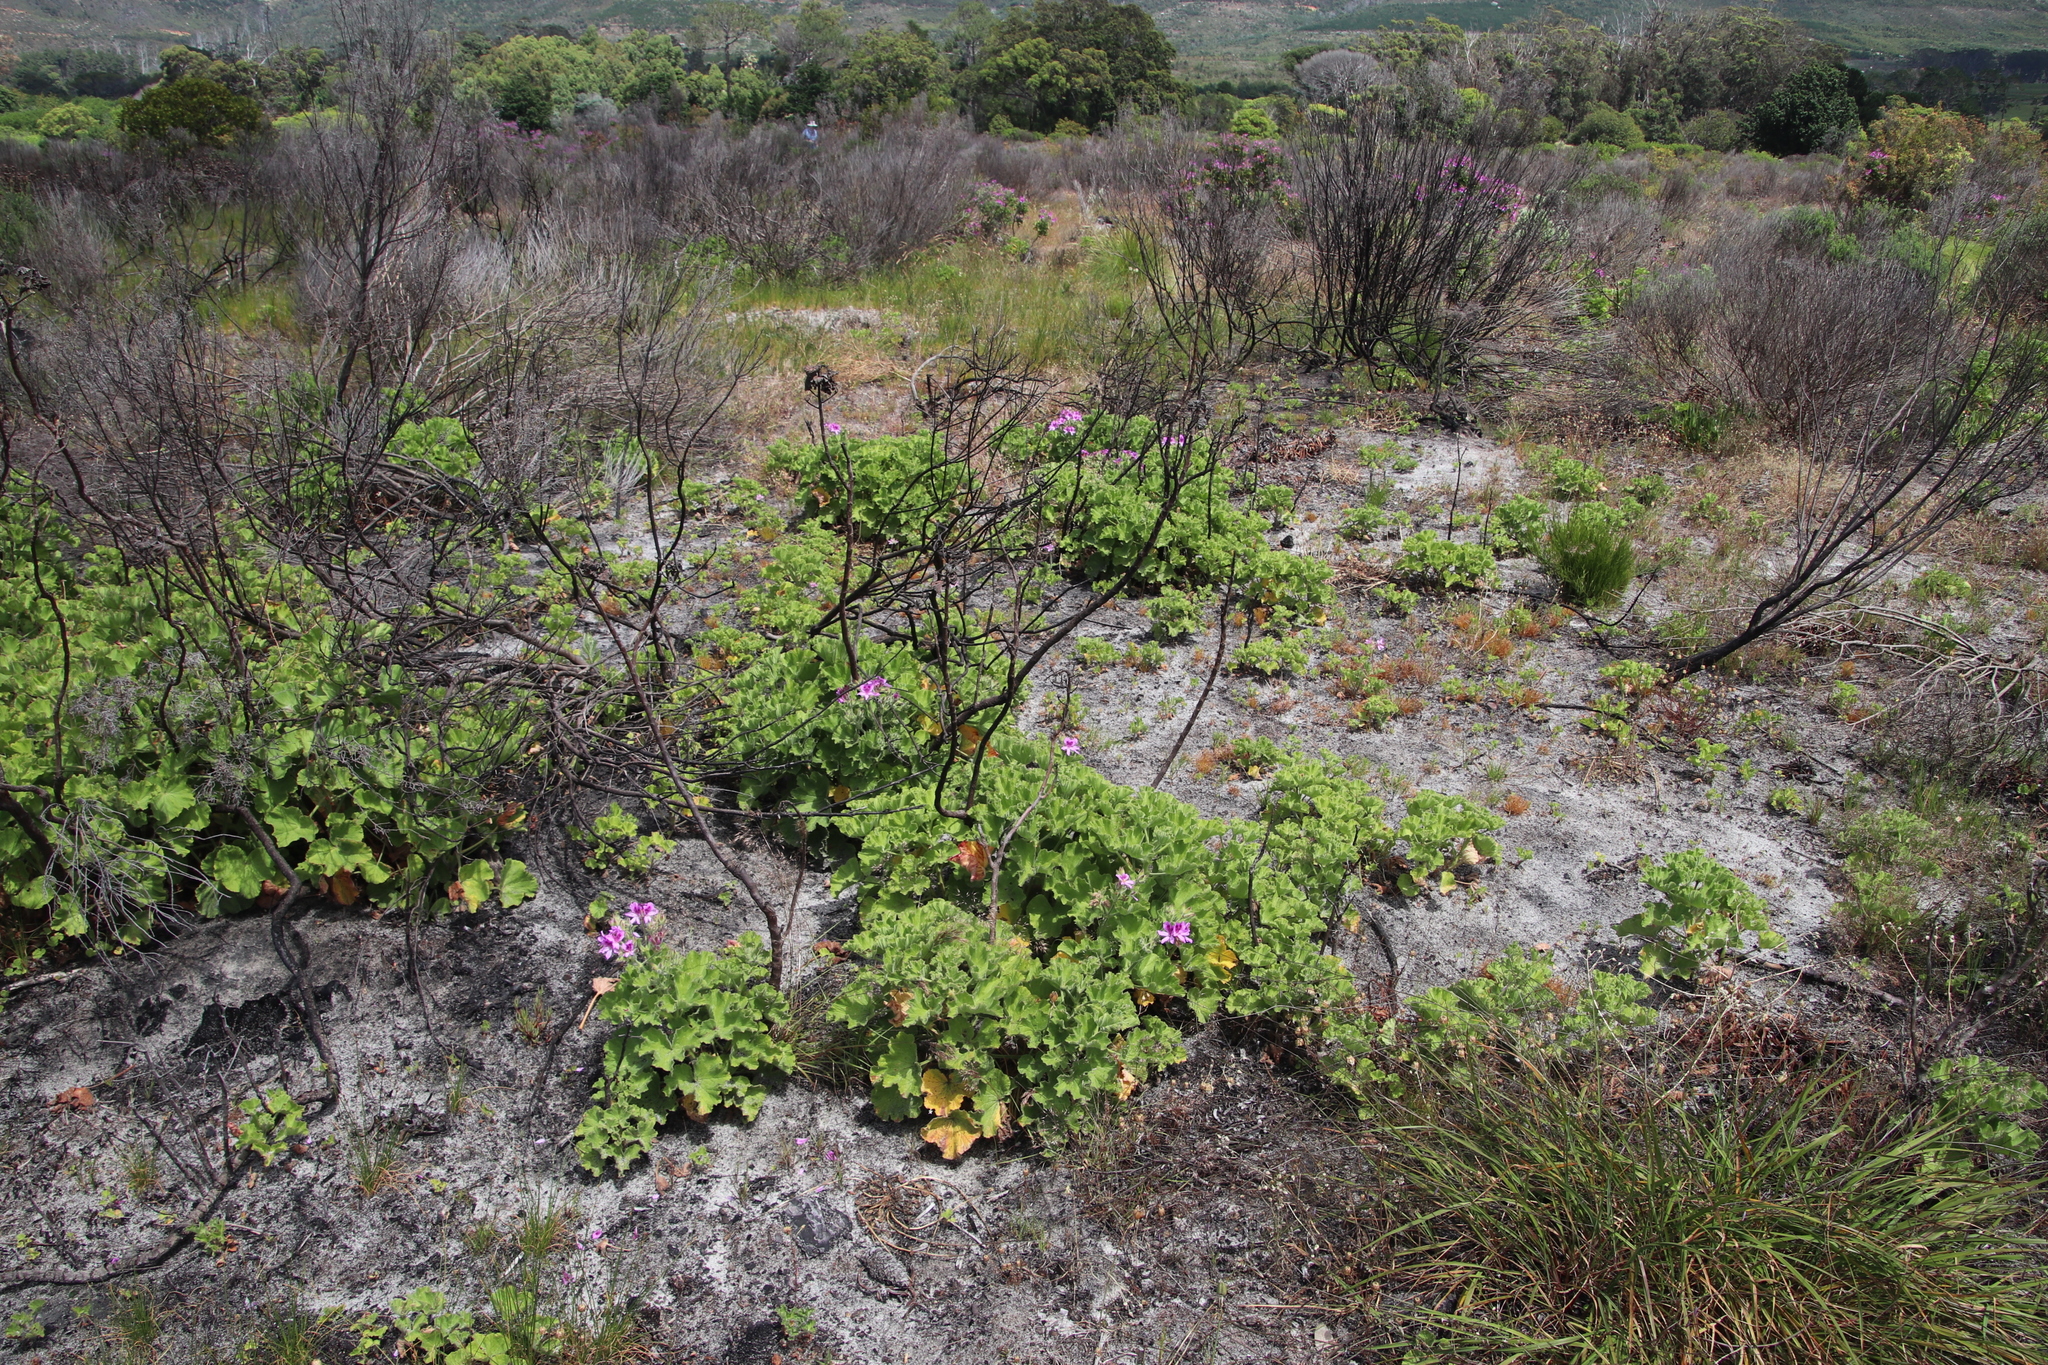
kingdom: Plantae
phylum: Tracheophyta
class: Magnoliopsida
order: Geraniales
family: Geraniaceae
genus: Pelargonium
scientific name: Pelargonium cucullatum
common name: Tree pelargonium
